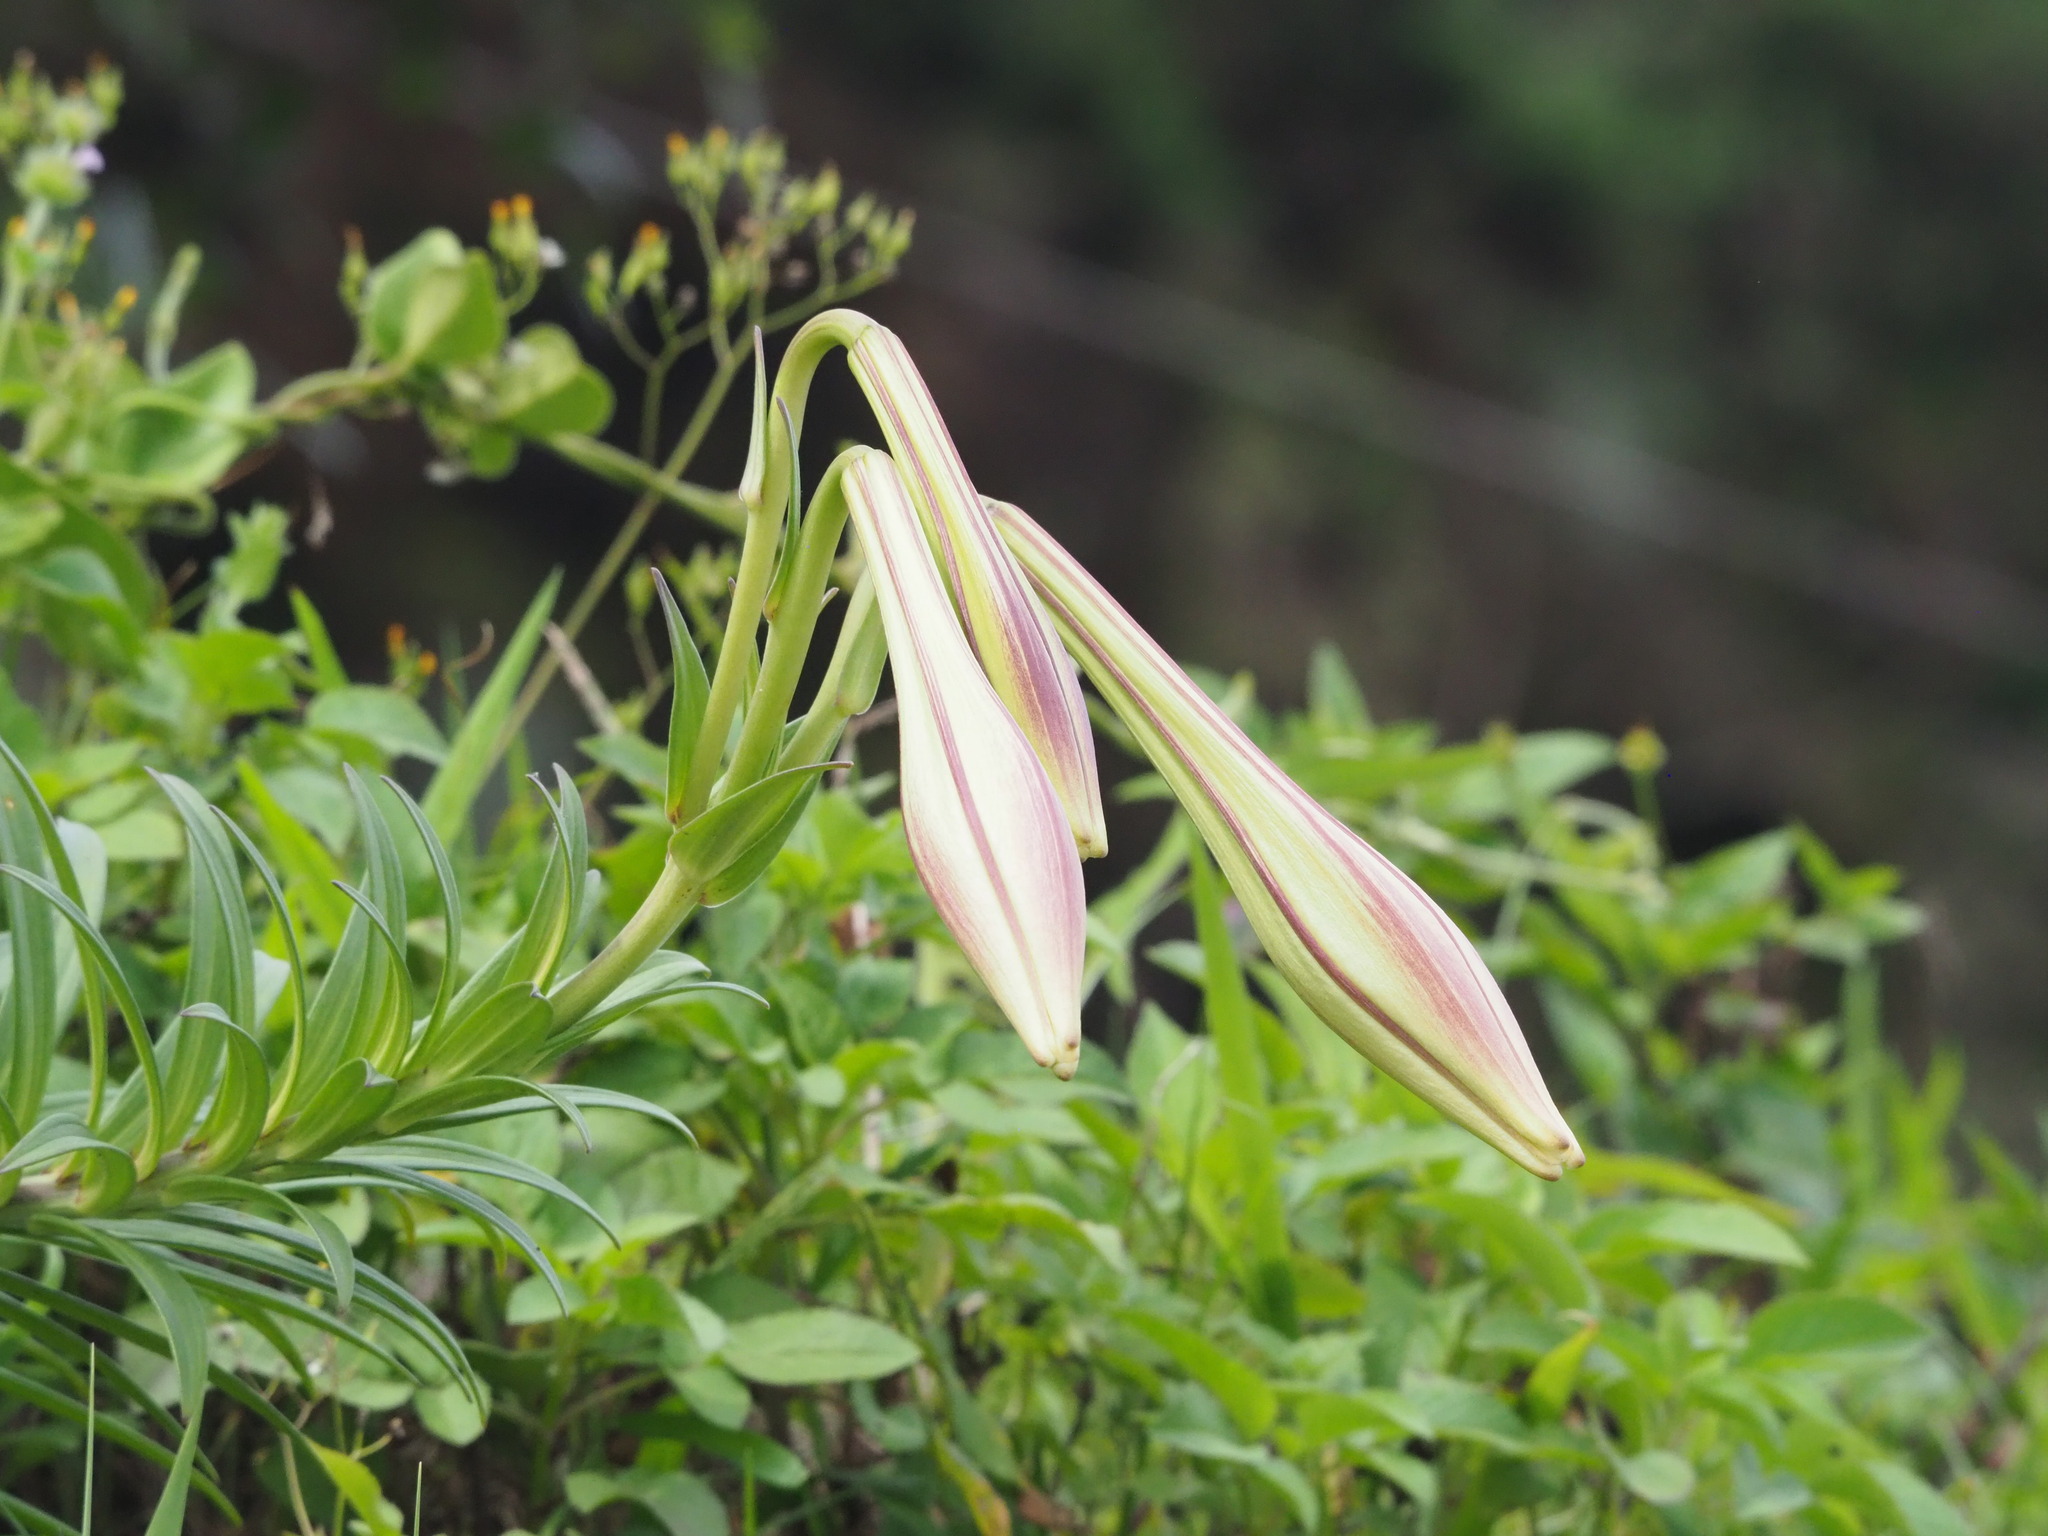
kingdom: Plantae
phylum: Tracheophyta
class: Liliopsida
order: Liliales
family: Liliaceae
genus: Lilium
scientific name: Lilium longiflorum
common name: Easter lily
